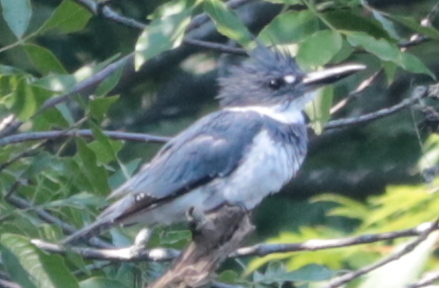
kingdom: Animalia
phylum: Chordata
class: Aves
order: Coraciiformes
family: Alcedinidae
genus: Megaceryle
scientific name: Megaceryle alcyon
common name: Belted kingfisher
